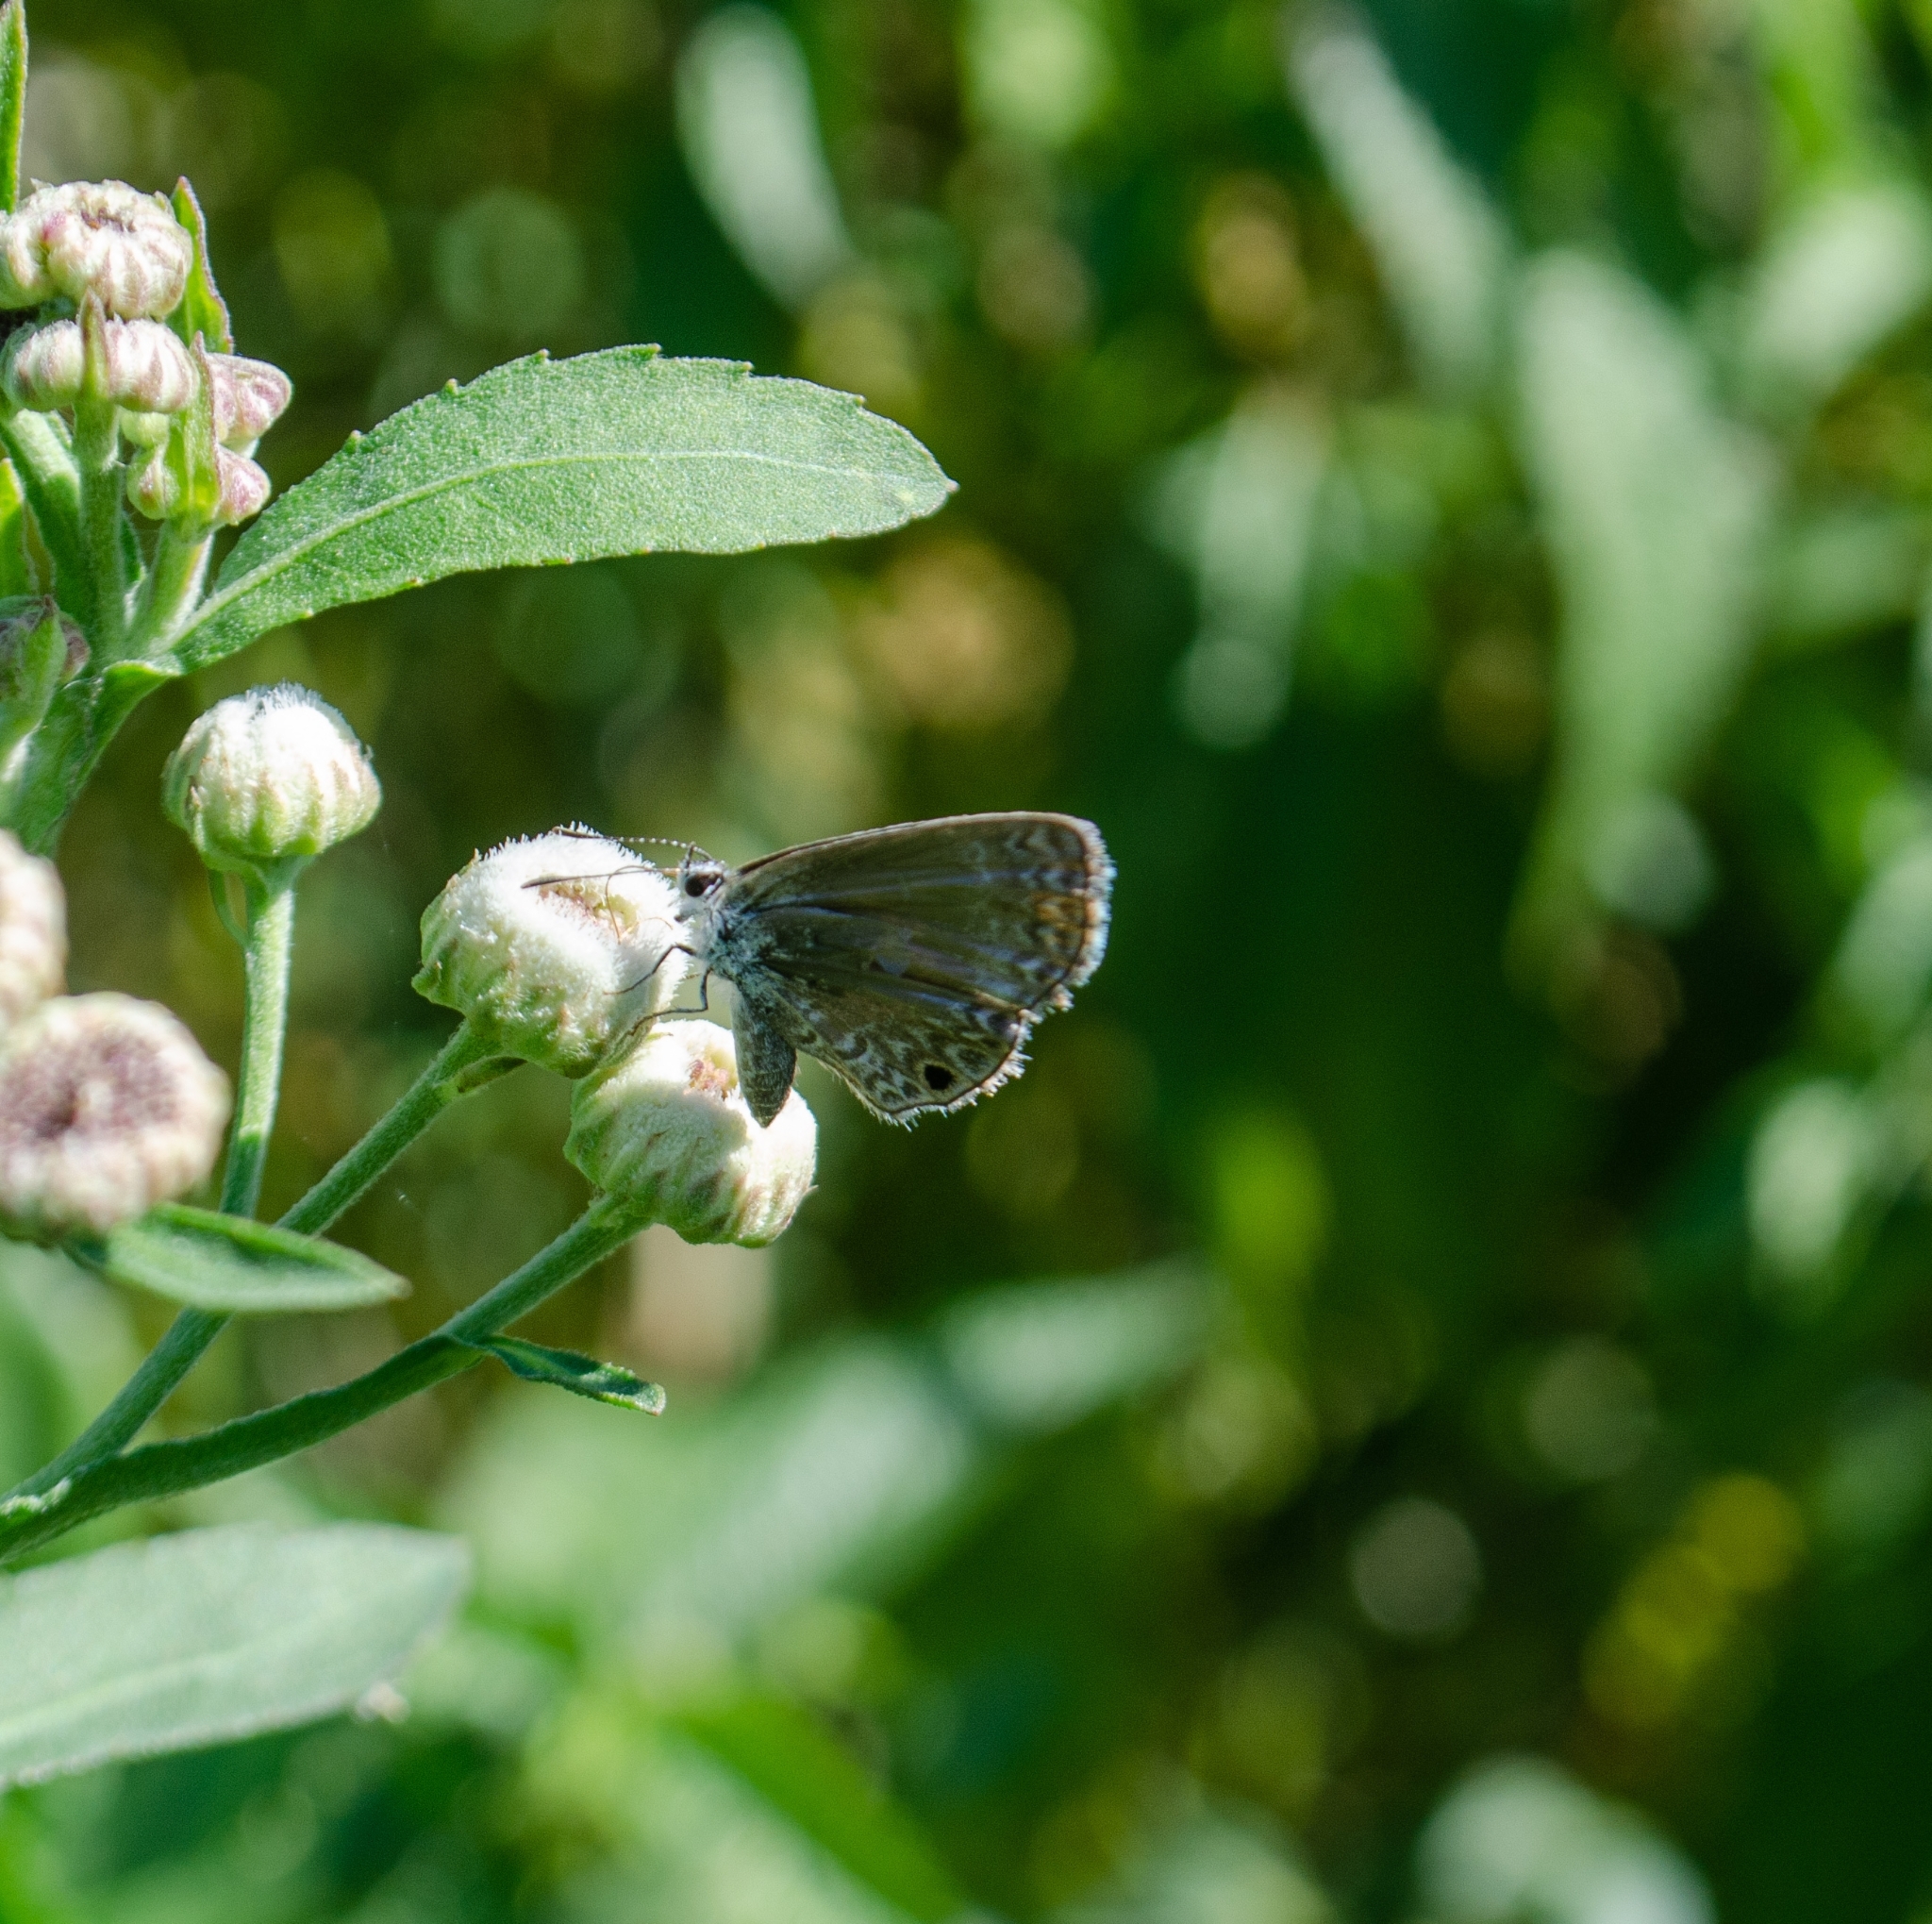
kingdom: Animalia
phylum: Arthropoda
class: Insecta
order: Lepidoptera
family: Lycaenidae
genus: Hemiargus
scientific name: Hemiargus hanno
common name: Common blue
